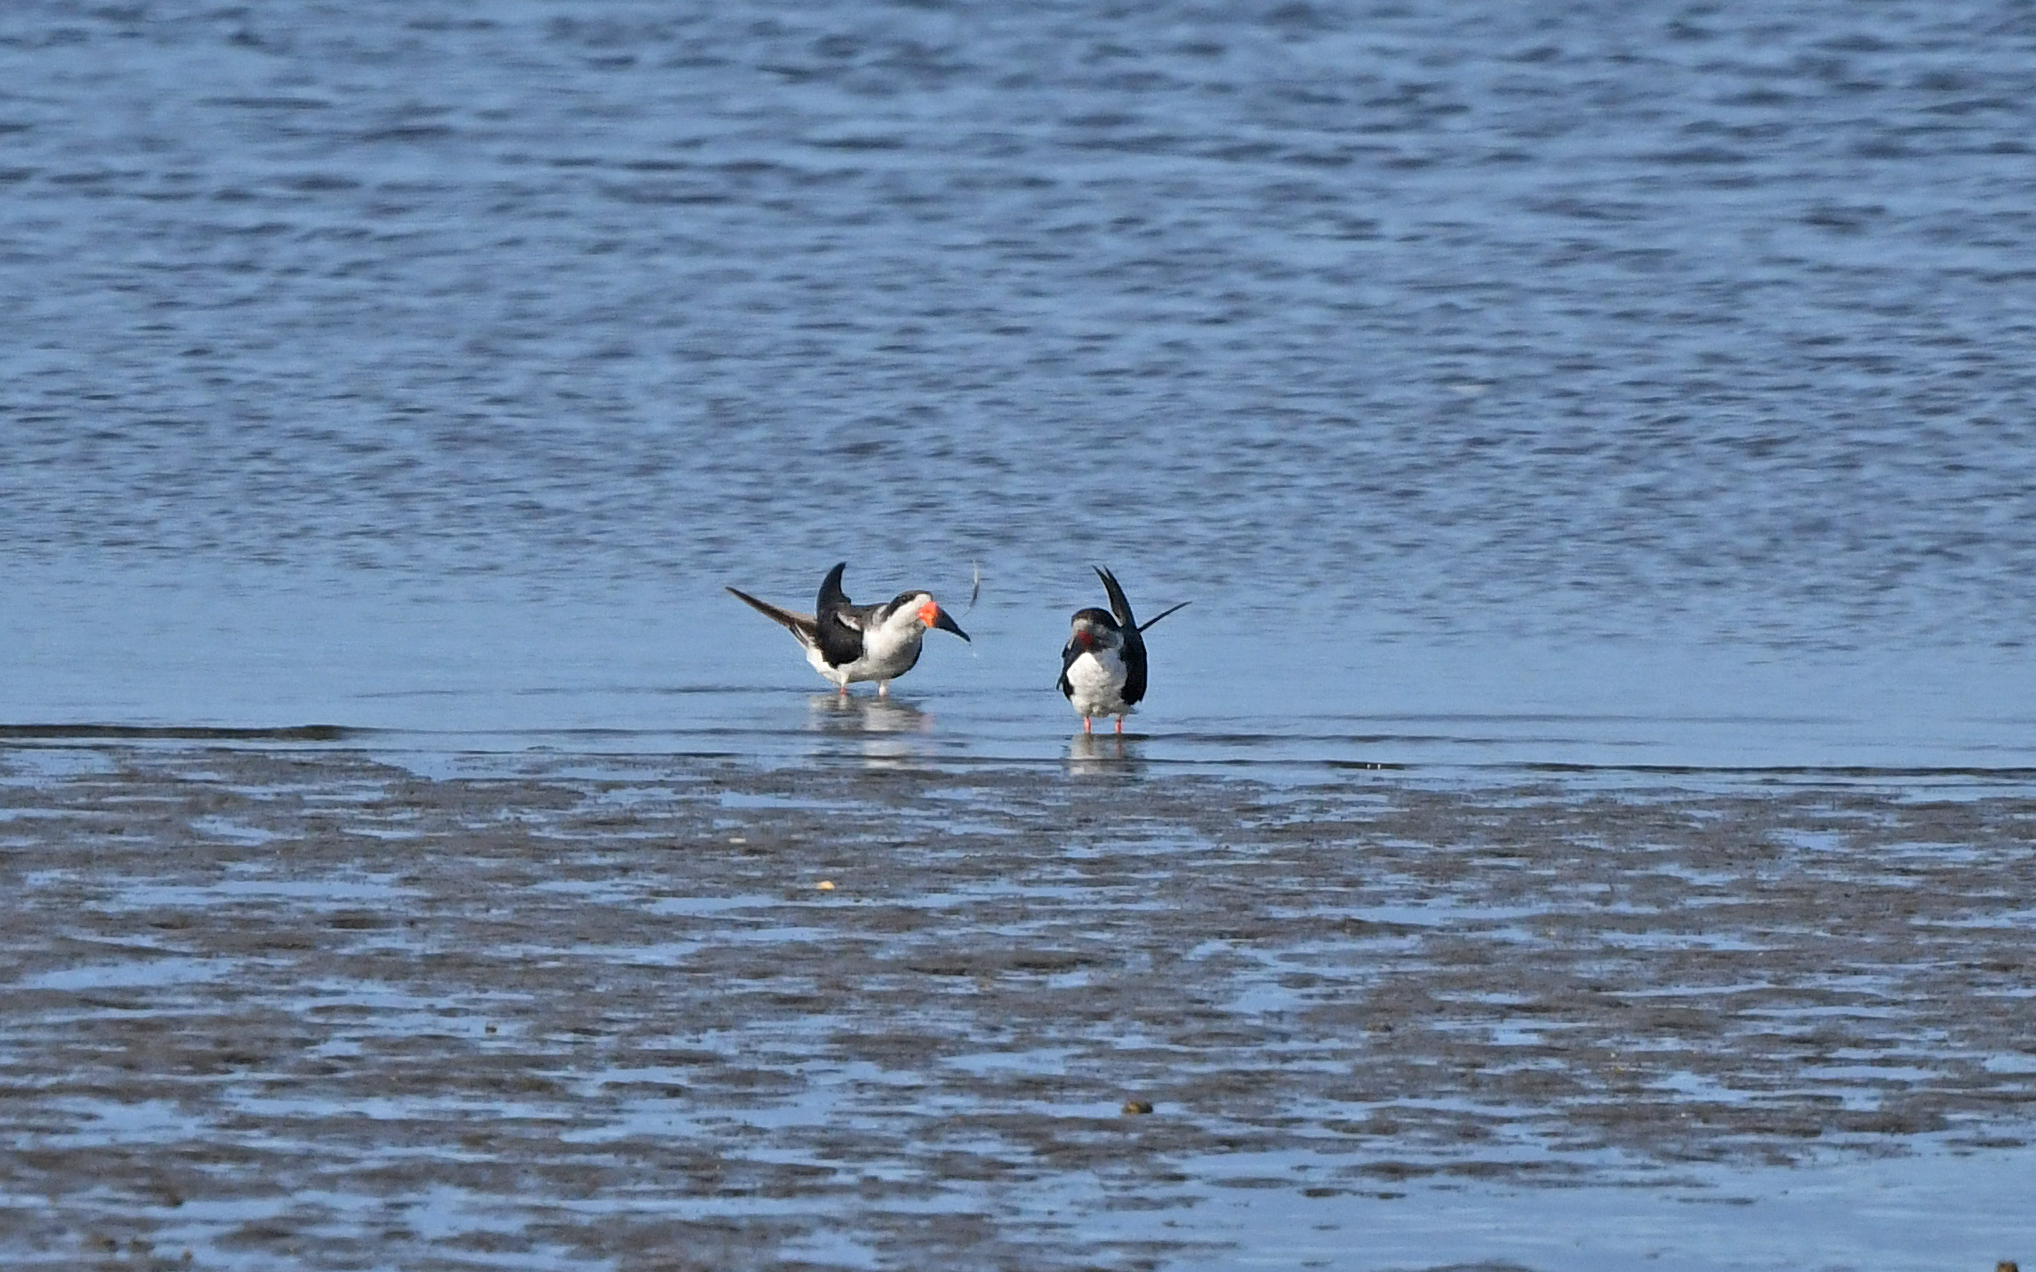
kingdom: Animalia
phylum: Chordata
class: Aves
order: Charadriiformes
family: Laridae
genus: Rynchops
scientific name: Rynchops niger
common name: Black skimmer
